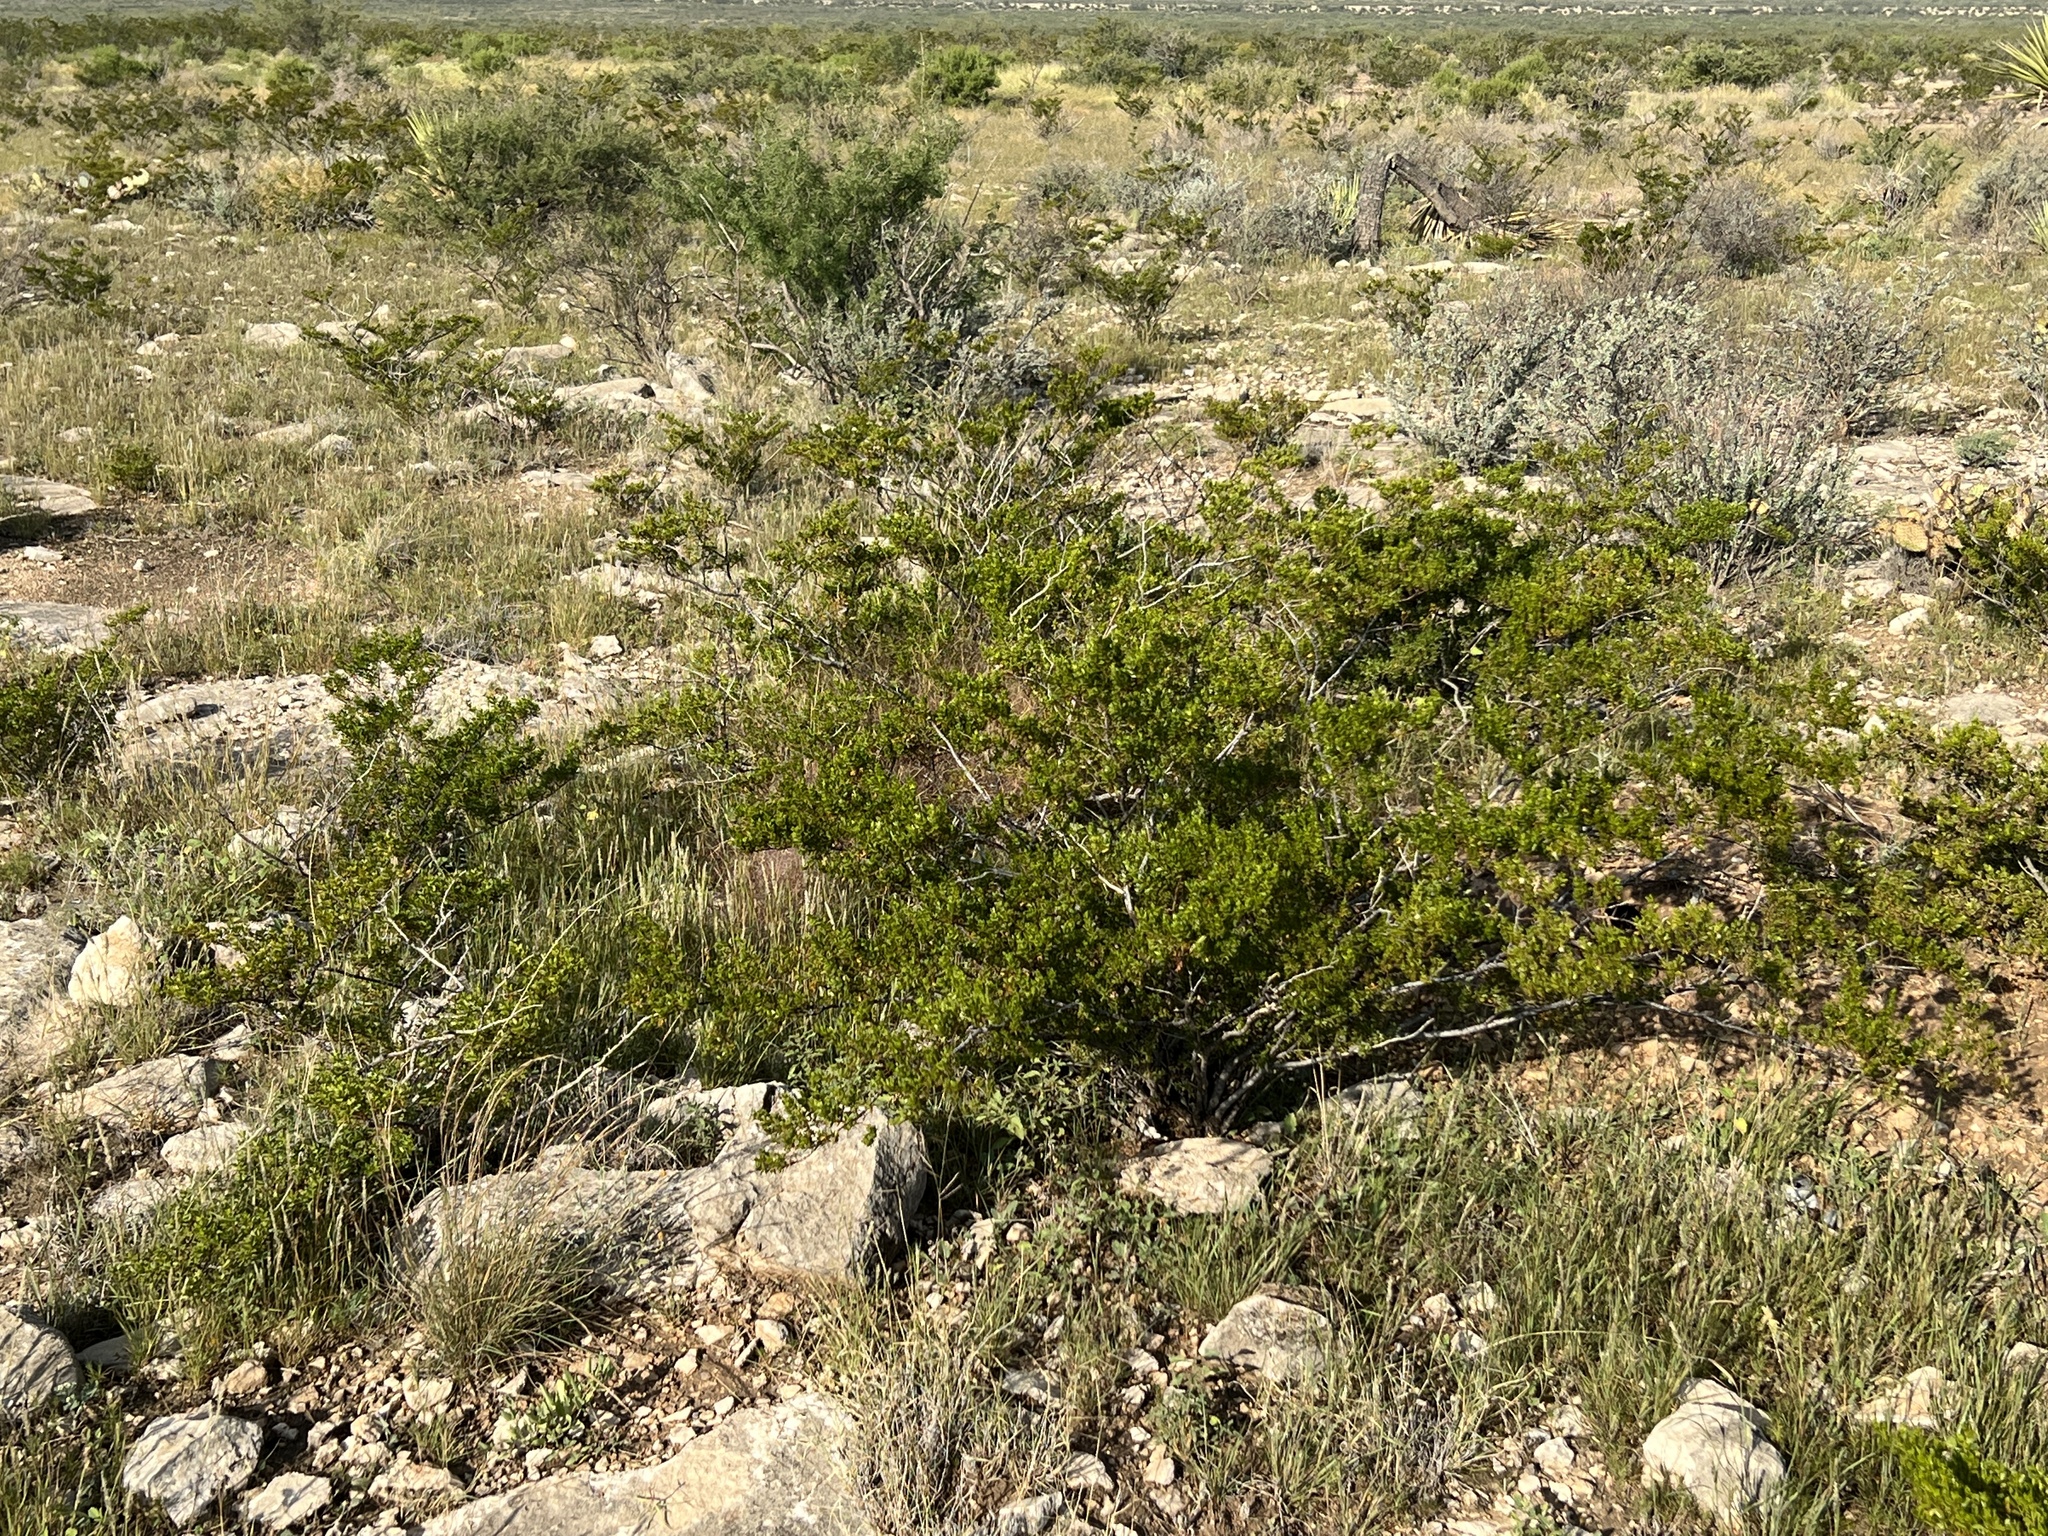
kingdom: Plantae
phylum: Tracheophyta
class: Magnoliopsida
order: Zygophyllales
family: Zygophyllaceae
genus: Larrea
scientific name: Larrea tridentata
